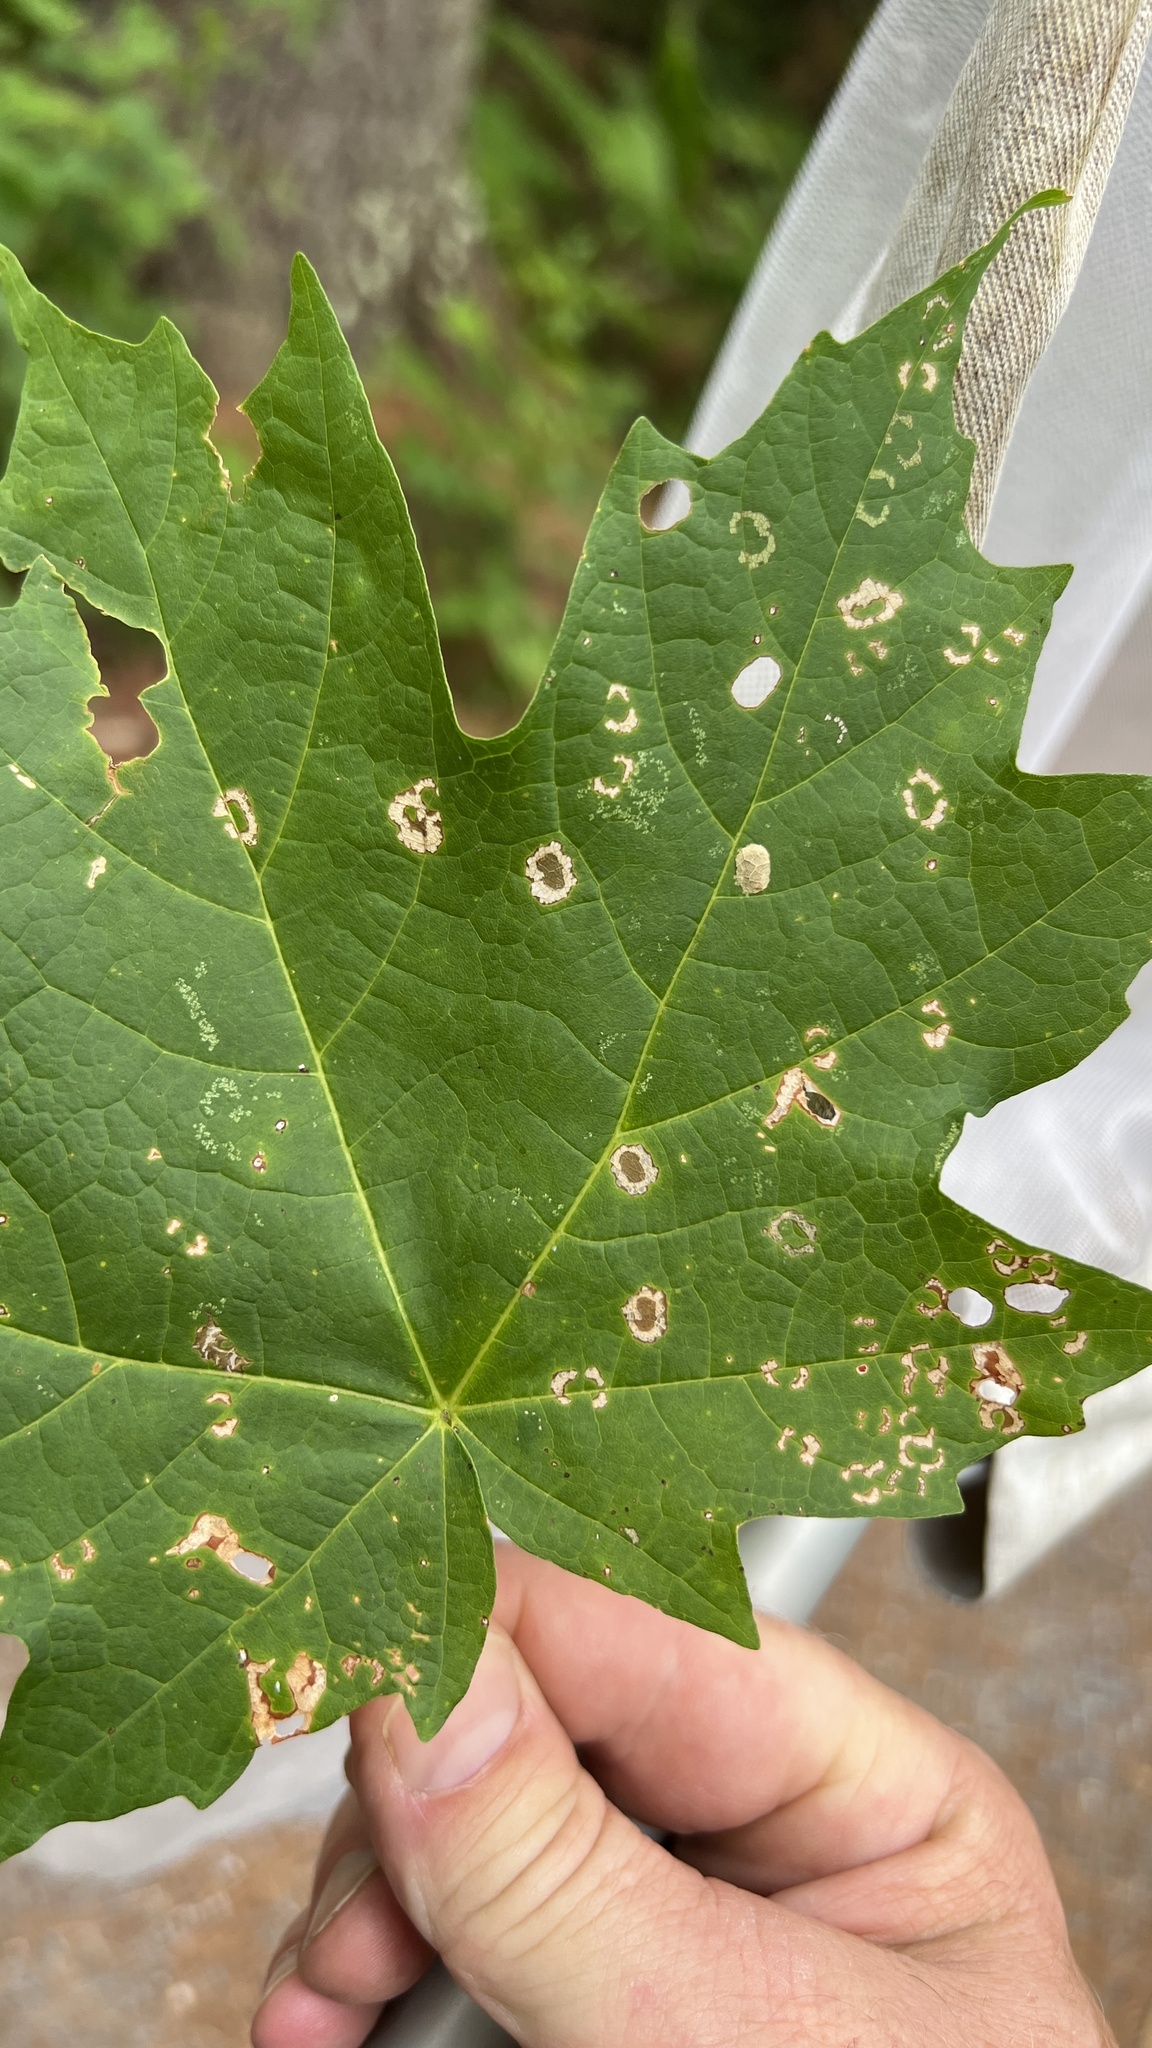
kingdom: Animalia
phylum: Arthropoda
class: Insecta
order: Lepidoptera
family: Incurvariidae
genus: Paraclemensia
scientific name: Paraclemensia acerifoliella
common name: Maple leafcutter
